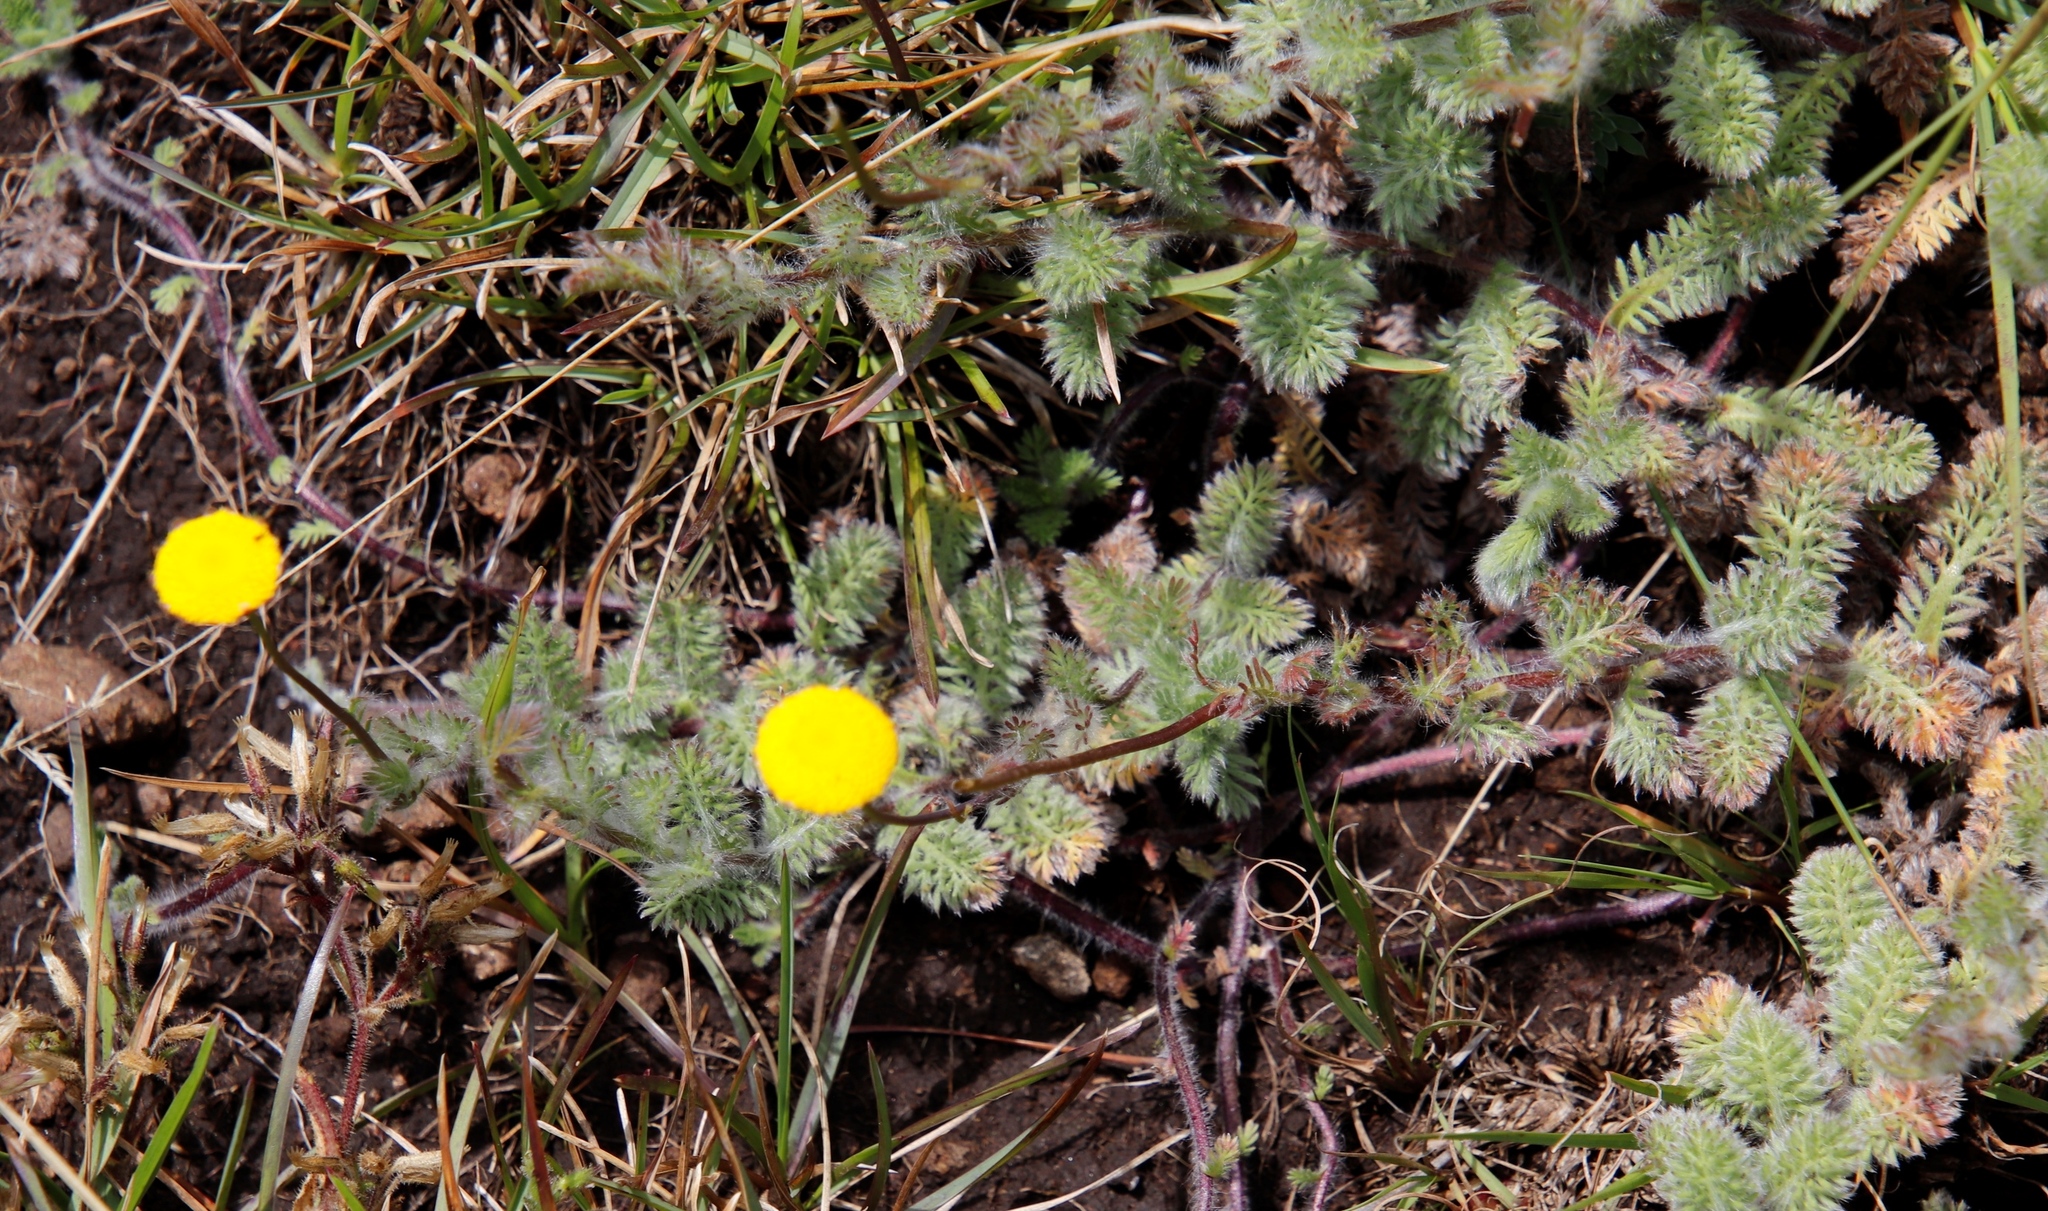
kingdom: Plantae
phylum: Tracheophyta
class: Magnoliopsida
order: Asterales
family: Asteraceae
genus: Cotula
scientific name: Cotula socialis
